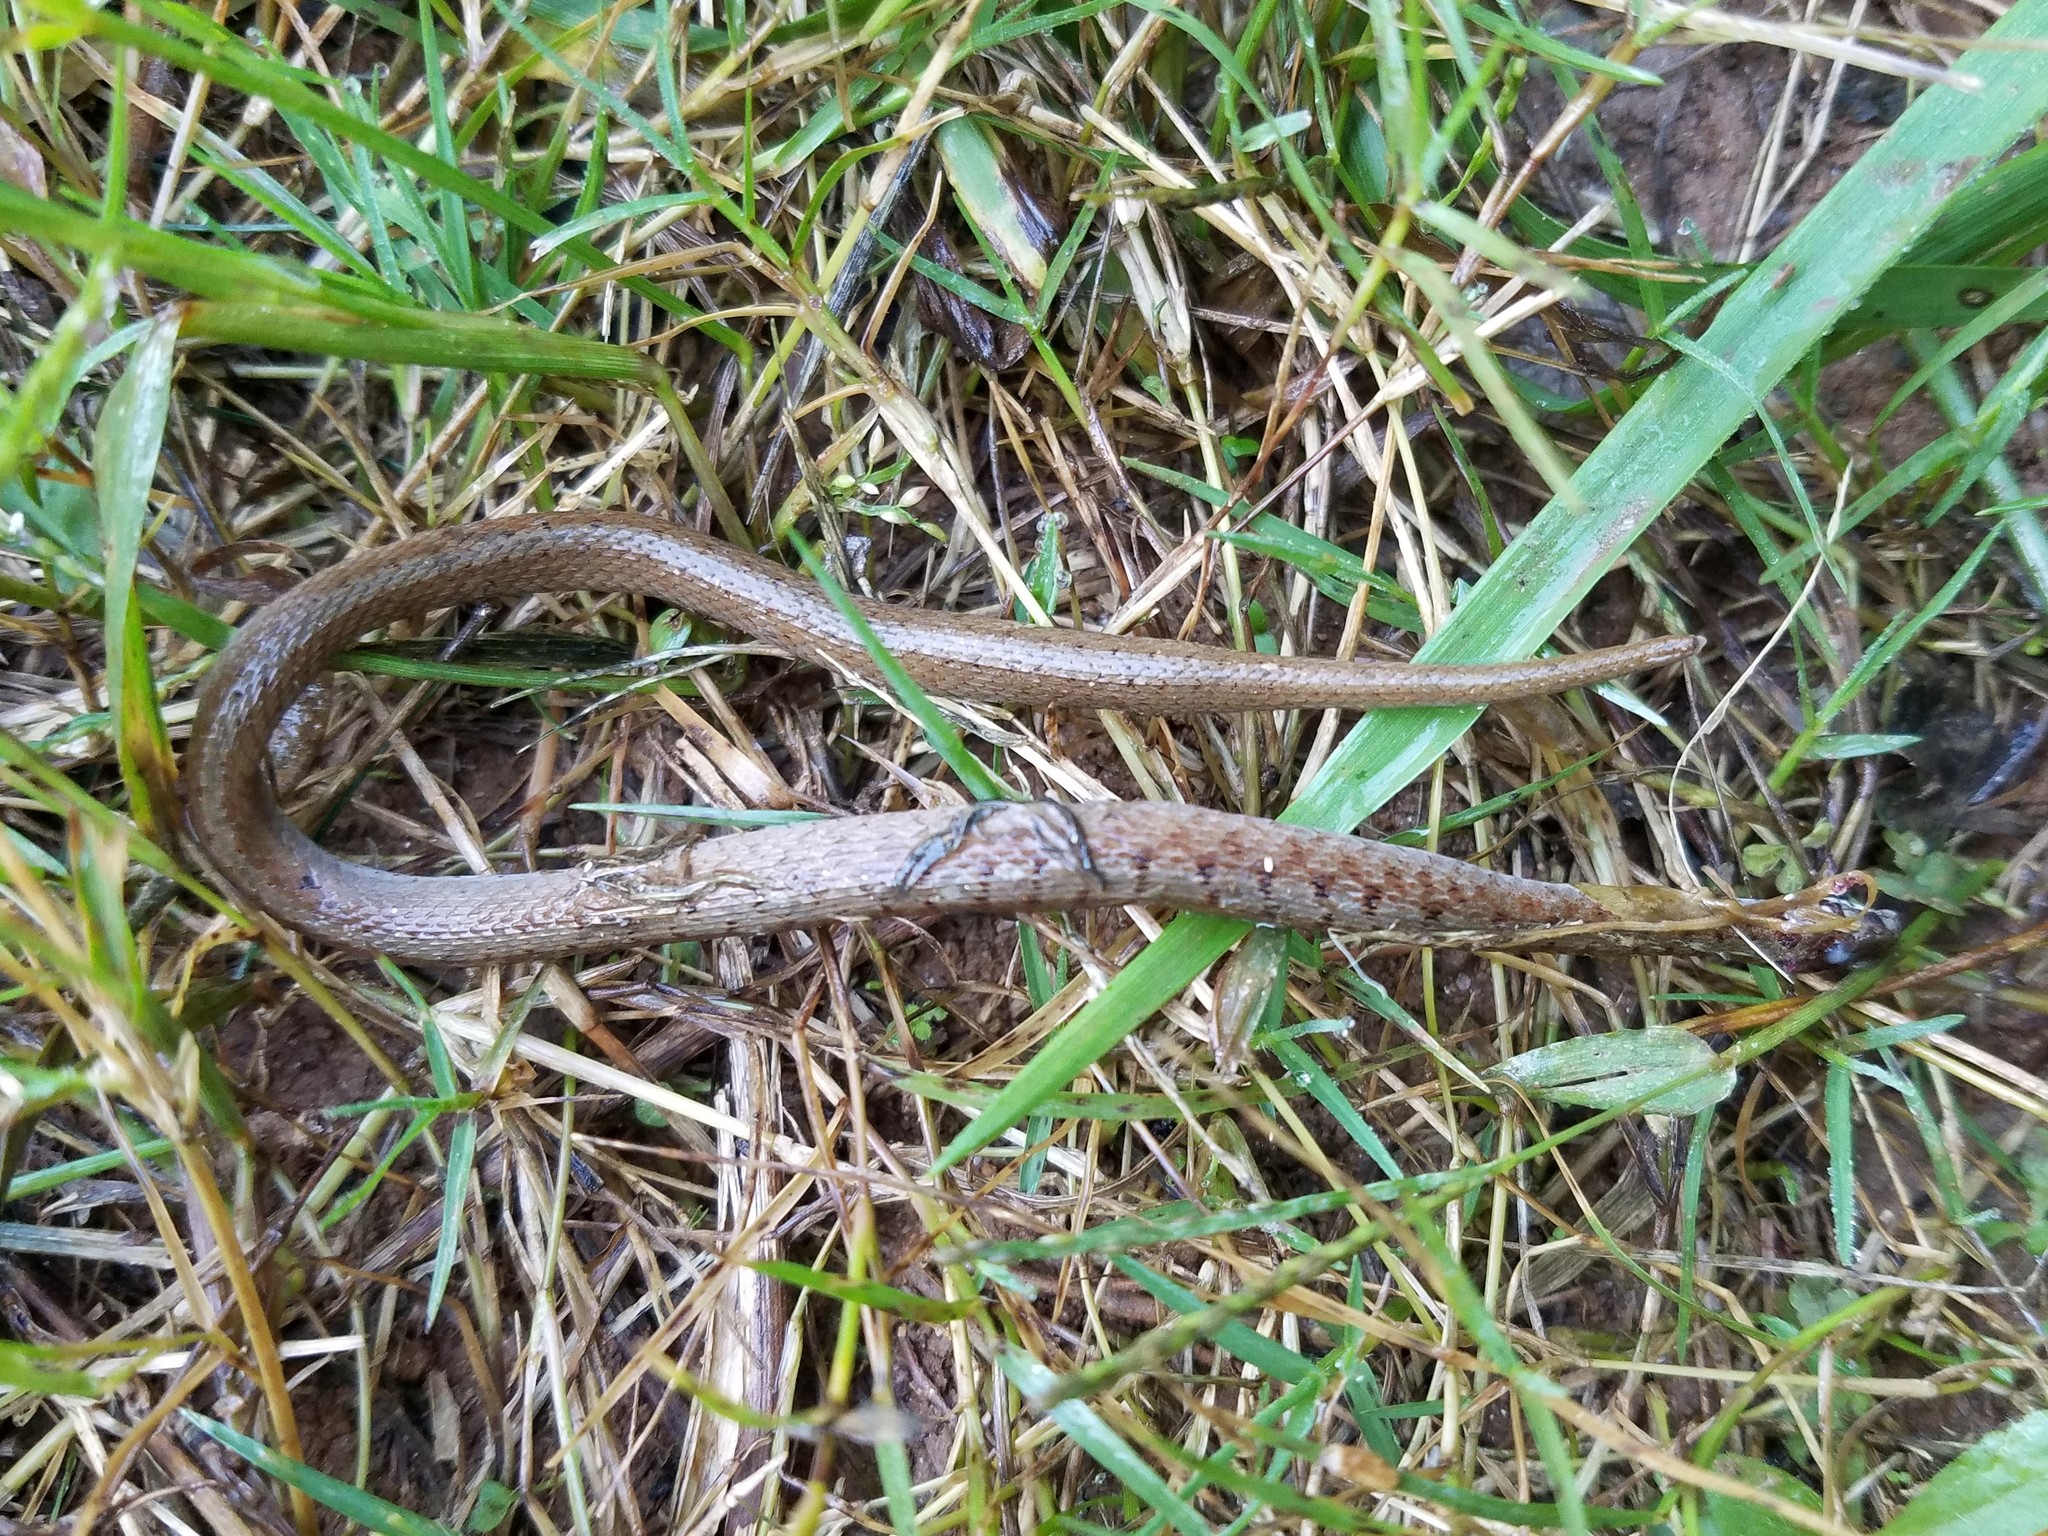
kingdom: Animalia
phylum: Chordata
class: Squamata
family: Colubridae
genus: Storeria
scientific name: Storeria dekayi
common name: (dekay’s) brown snake
